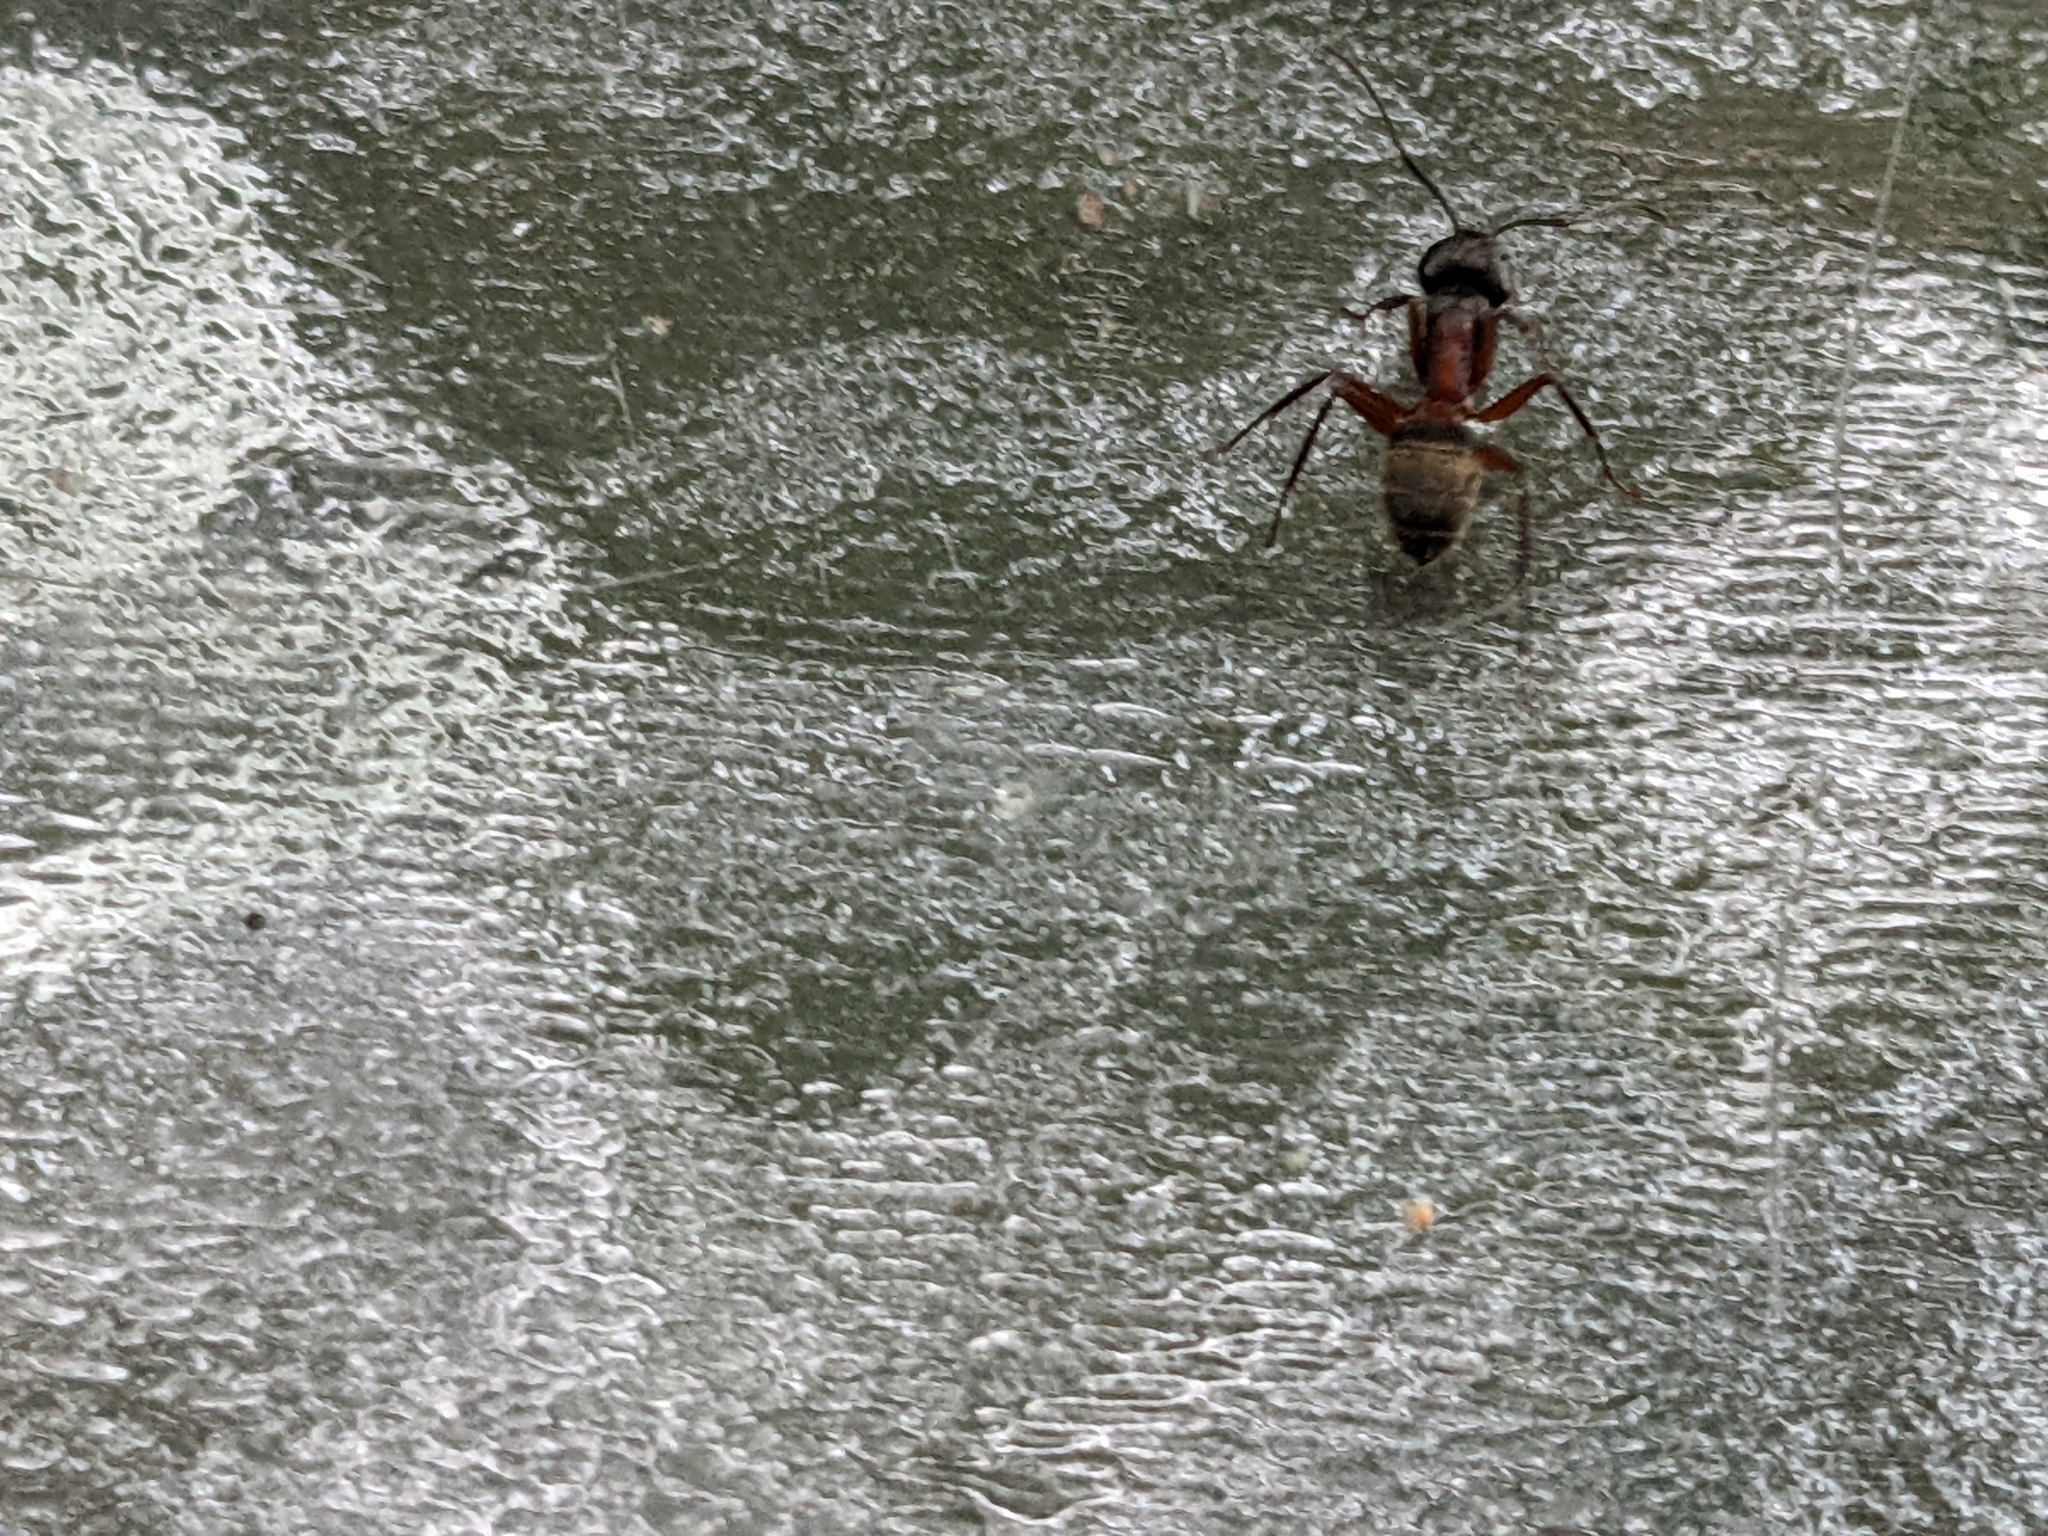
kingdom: Animalia
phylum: Arthropoda
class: Insecta
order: Hymenoptera
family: Formicidae
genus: Camponotus
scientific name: Camponotus chromaiodes
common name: Red carpenter ant
